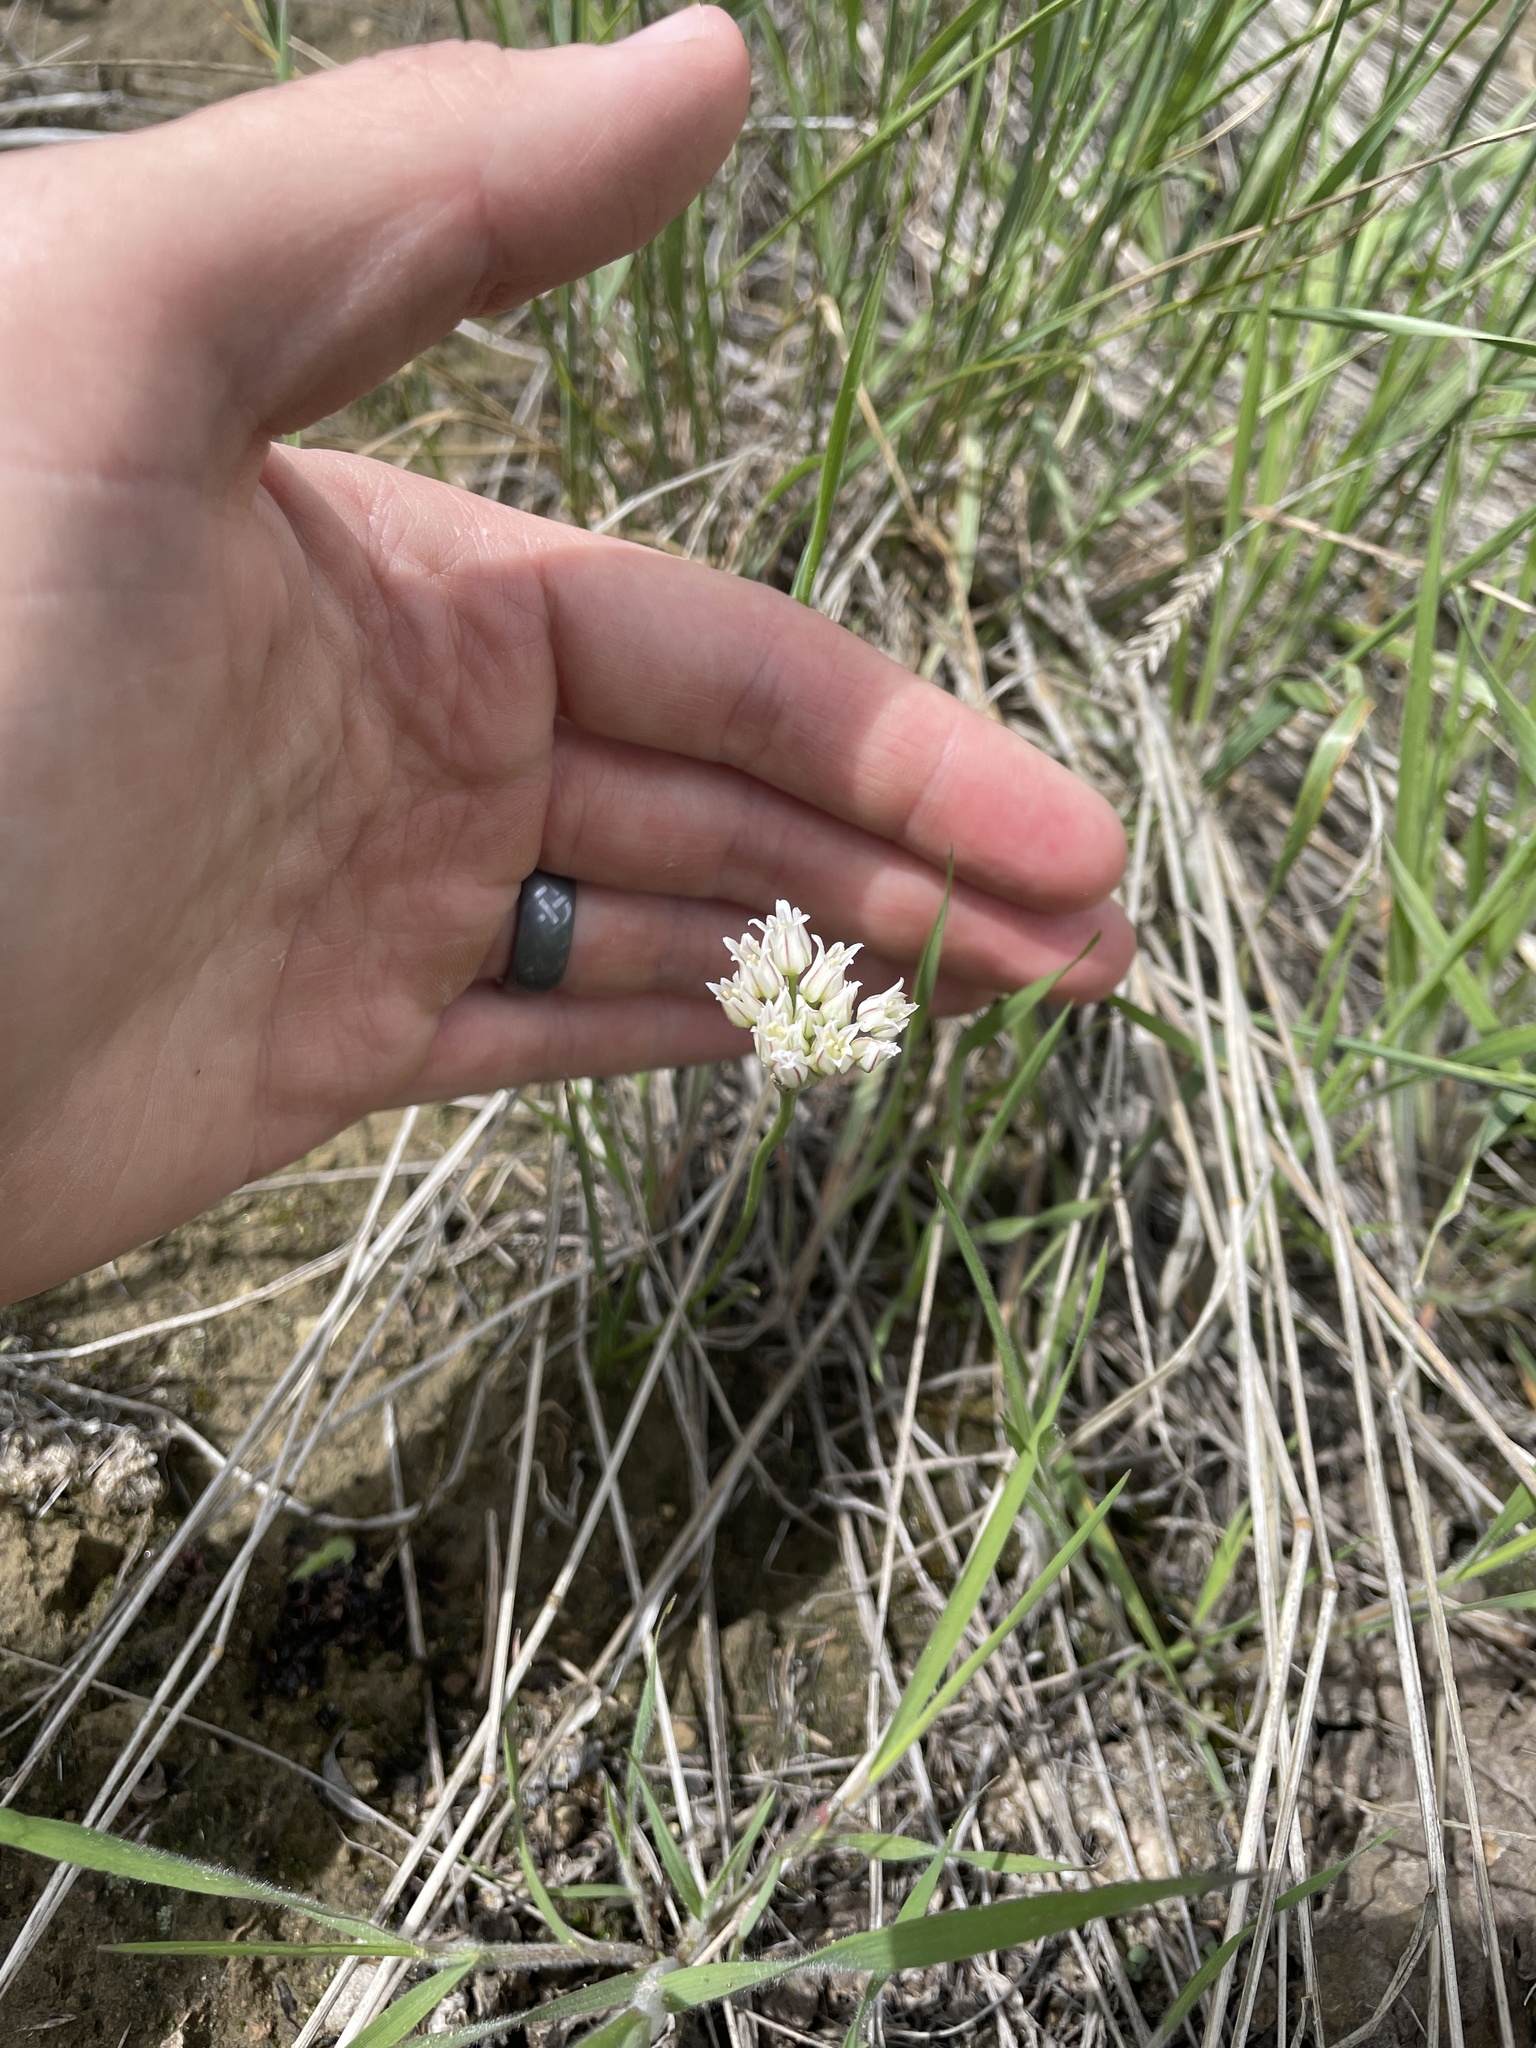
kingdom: Plantae
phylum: Tracheophyta
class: Liliopsida
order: Asparagales
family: Amaryllidaceae
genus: Allium
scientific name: Allium textile
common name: Prairie onion
